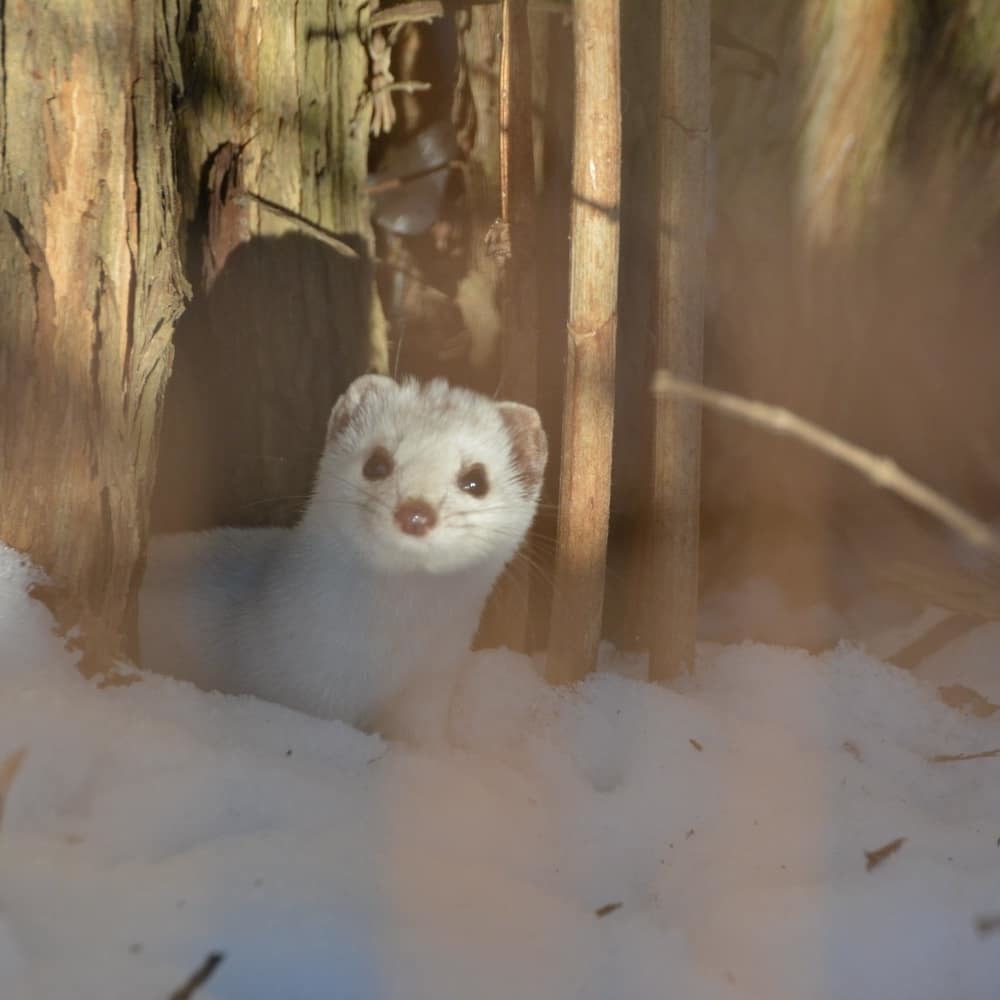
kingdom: Animalia
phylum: Chordata
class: Mammalia
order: Carnivora
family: Mustelidae
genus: Mustela
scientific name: Mustela nivalis
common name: Least weasel
